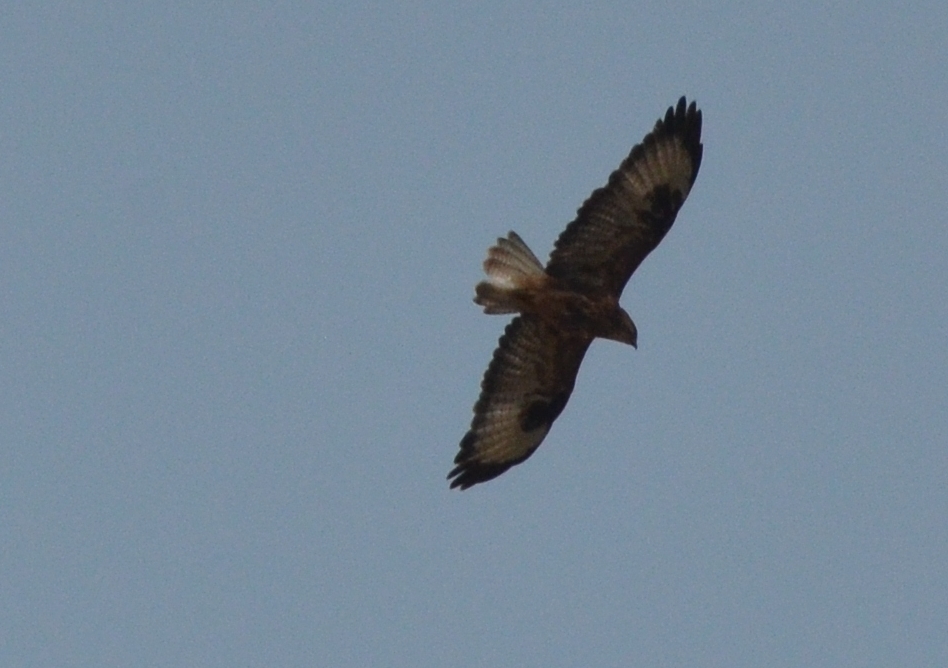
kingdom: Animalia
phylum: Chordata
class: Aves
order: Accipitriformes
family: Accipitridae
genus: Buteo
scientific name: Buteo rufinus
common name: Long-legged buzzard
